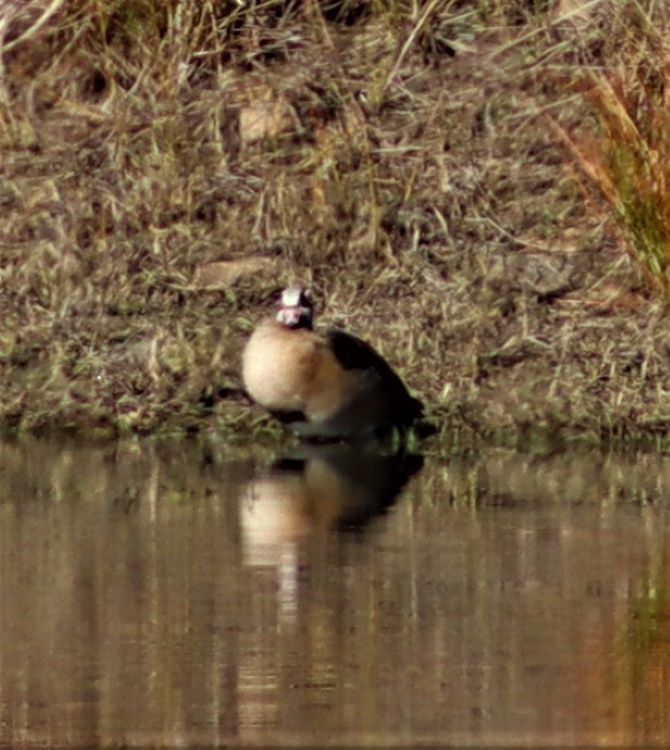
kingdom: Animalia
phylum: Chordata
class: Aves
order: Anseriformes
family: Anatidae
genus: Alopochen
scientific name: Alopochen aegyptiaca
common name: Egyptian goose
